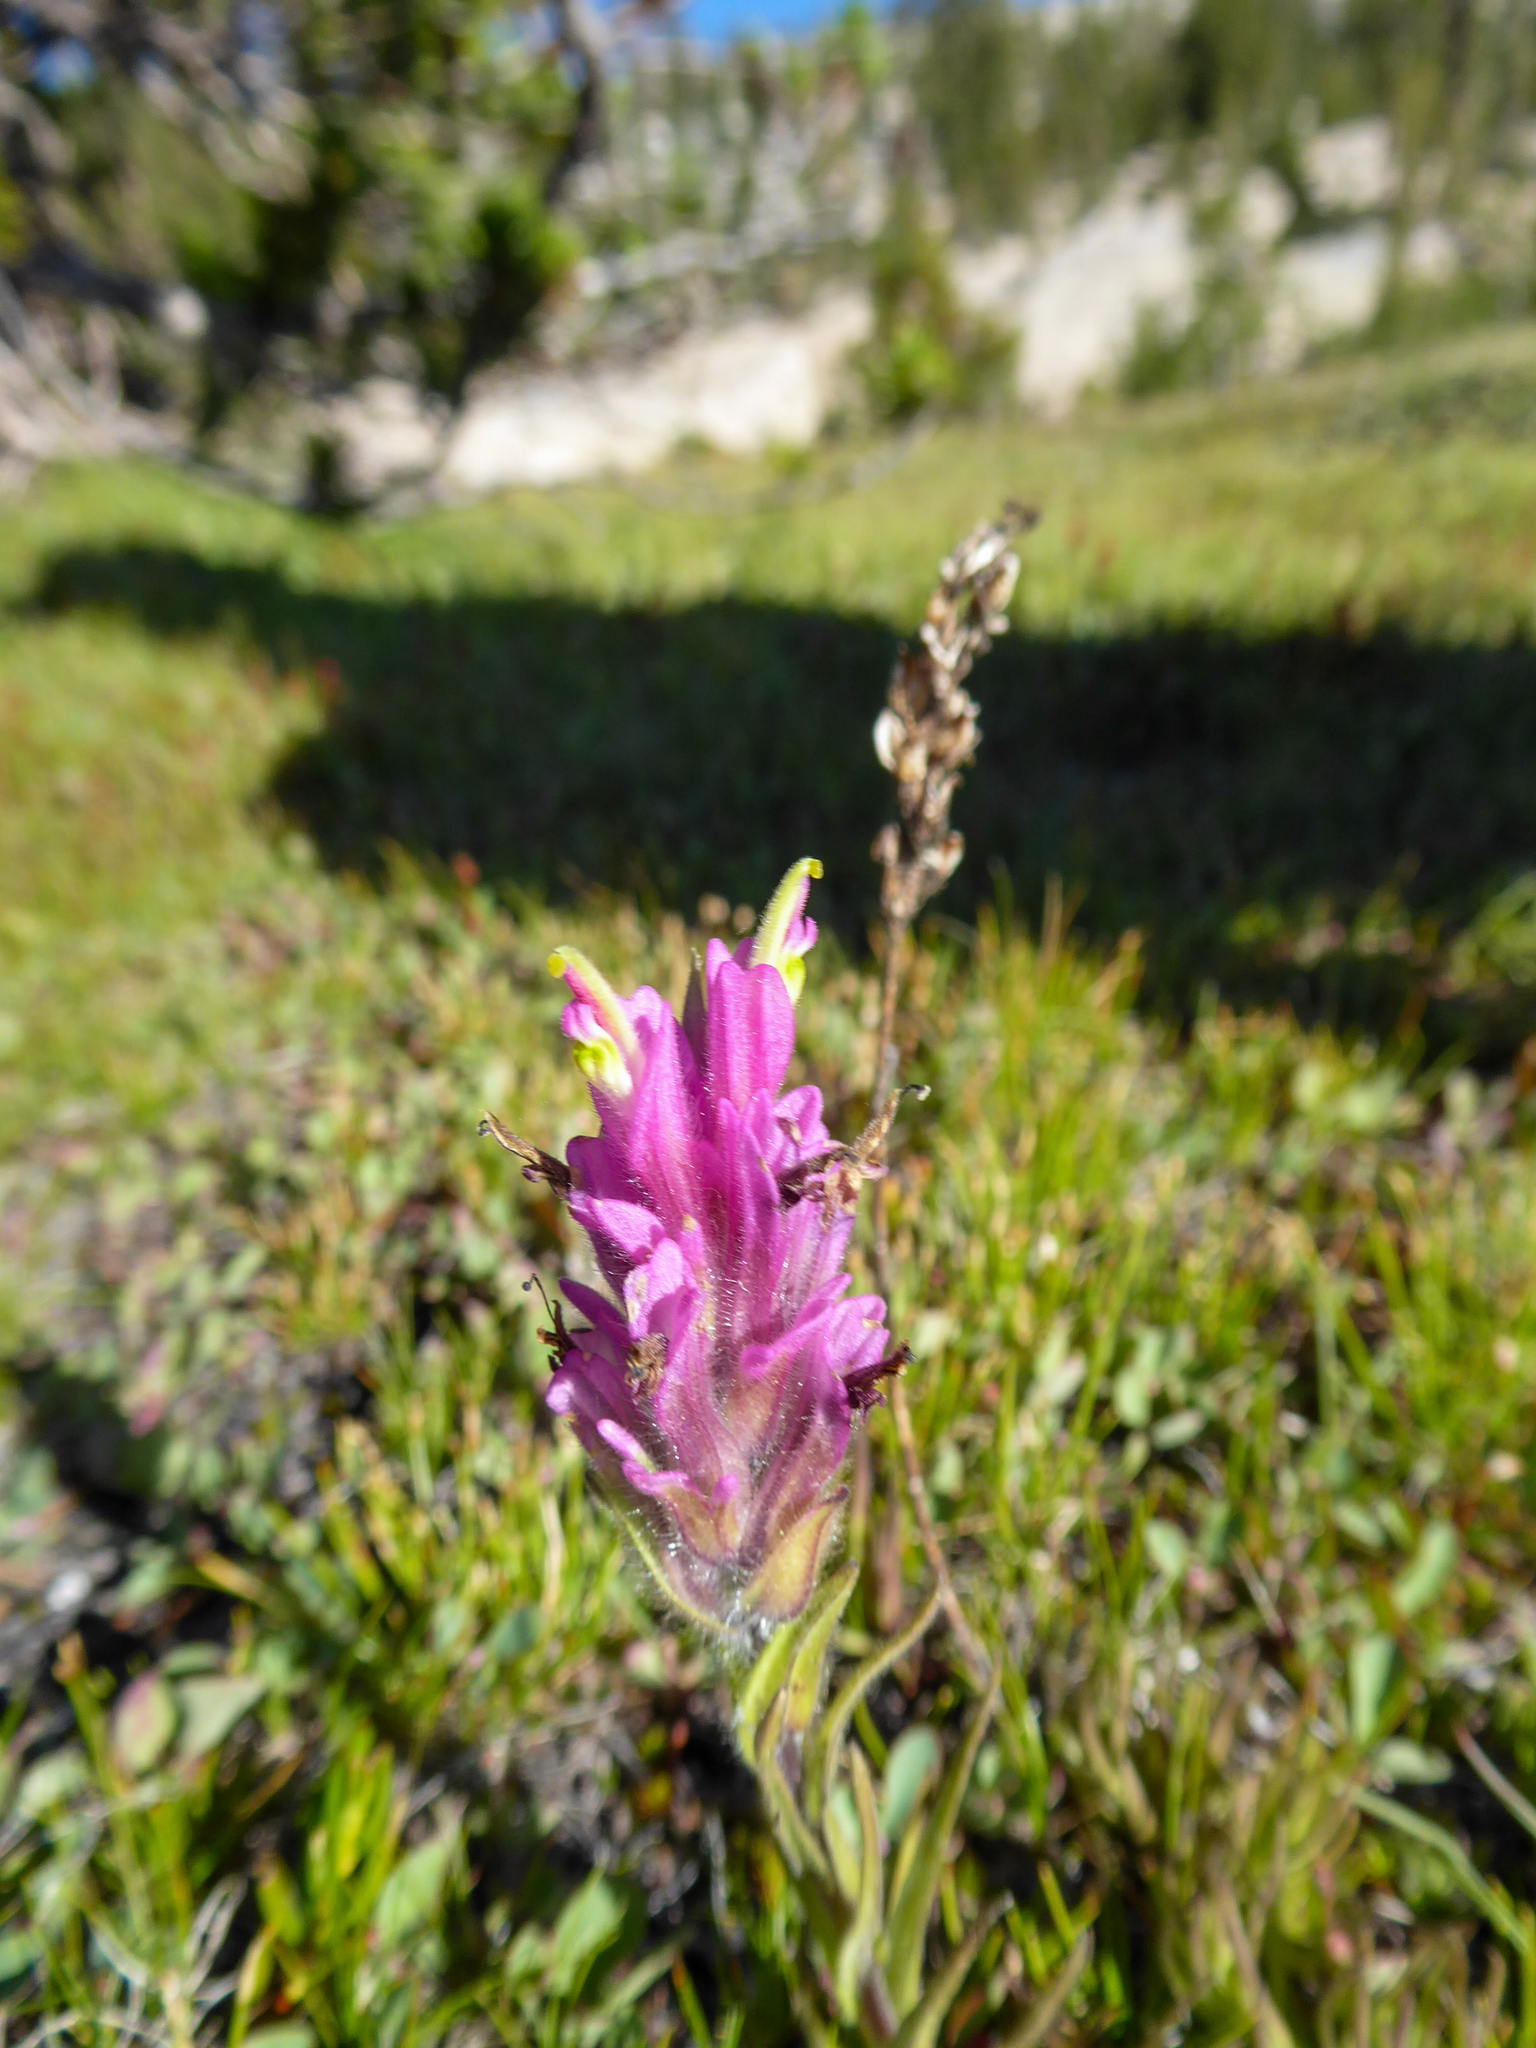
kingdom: Plantae
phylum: Tracheophyta
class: Magnoliopsida
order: Lamiales
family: Orobanchaceae
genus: Castilleja
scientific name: Castilleja lemmonii
